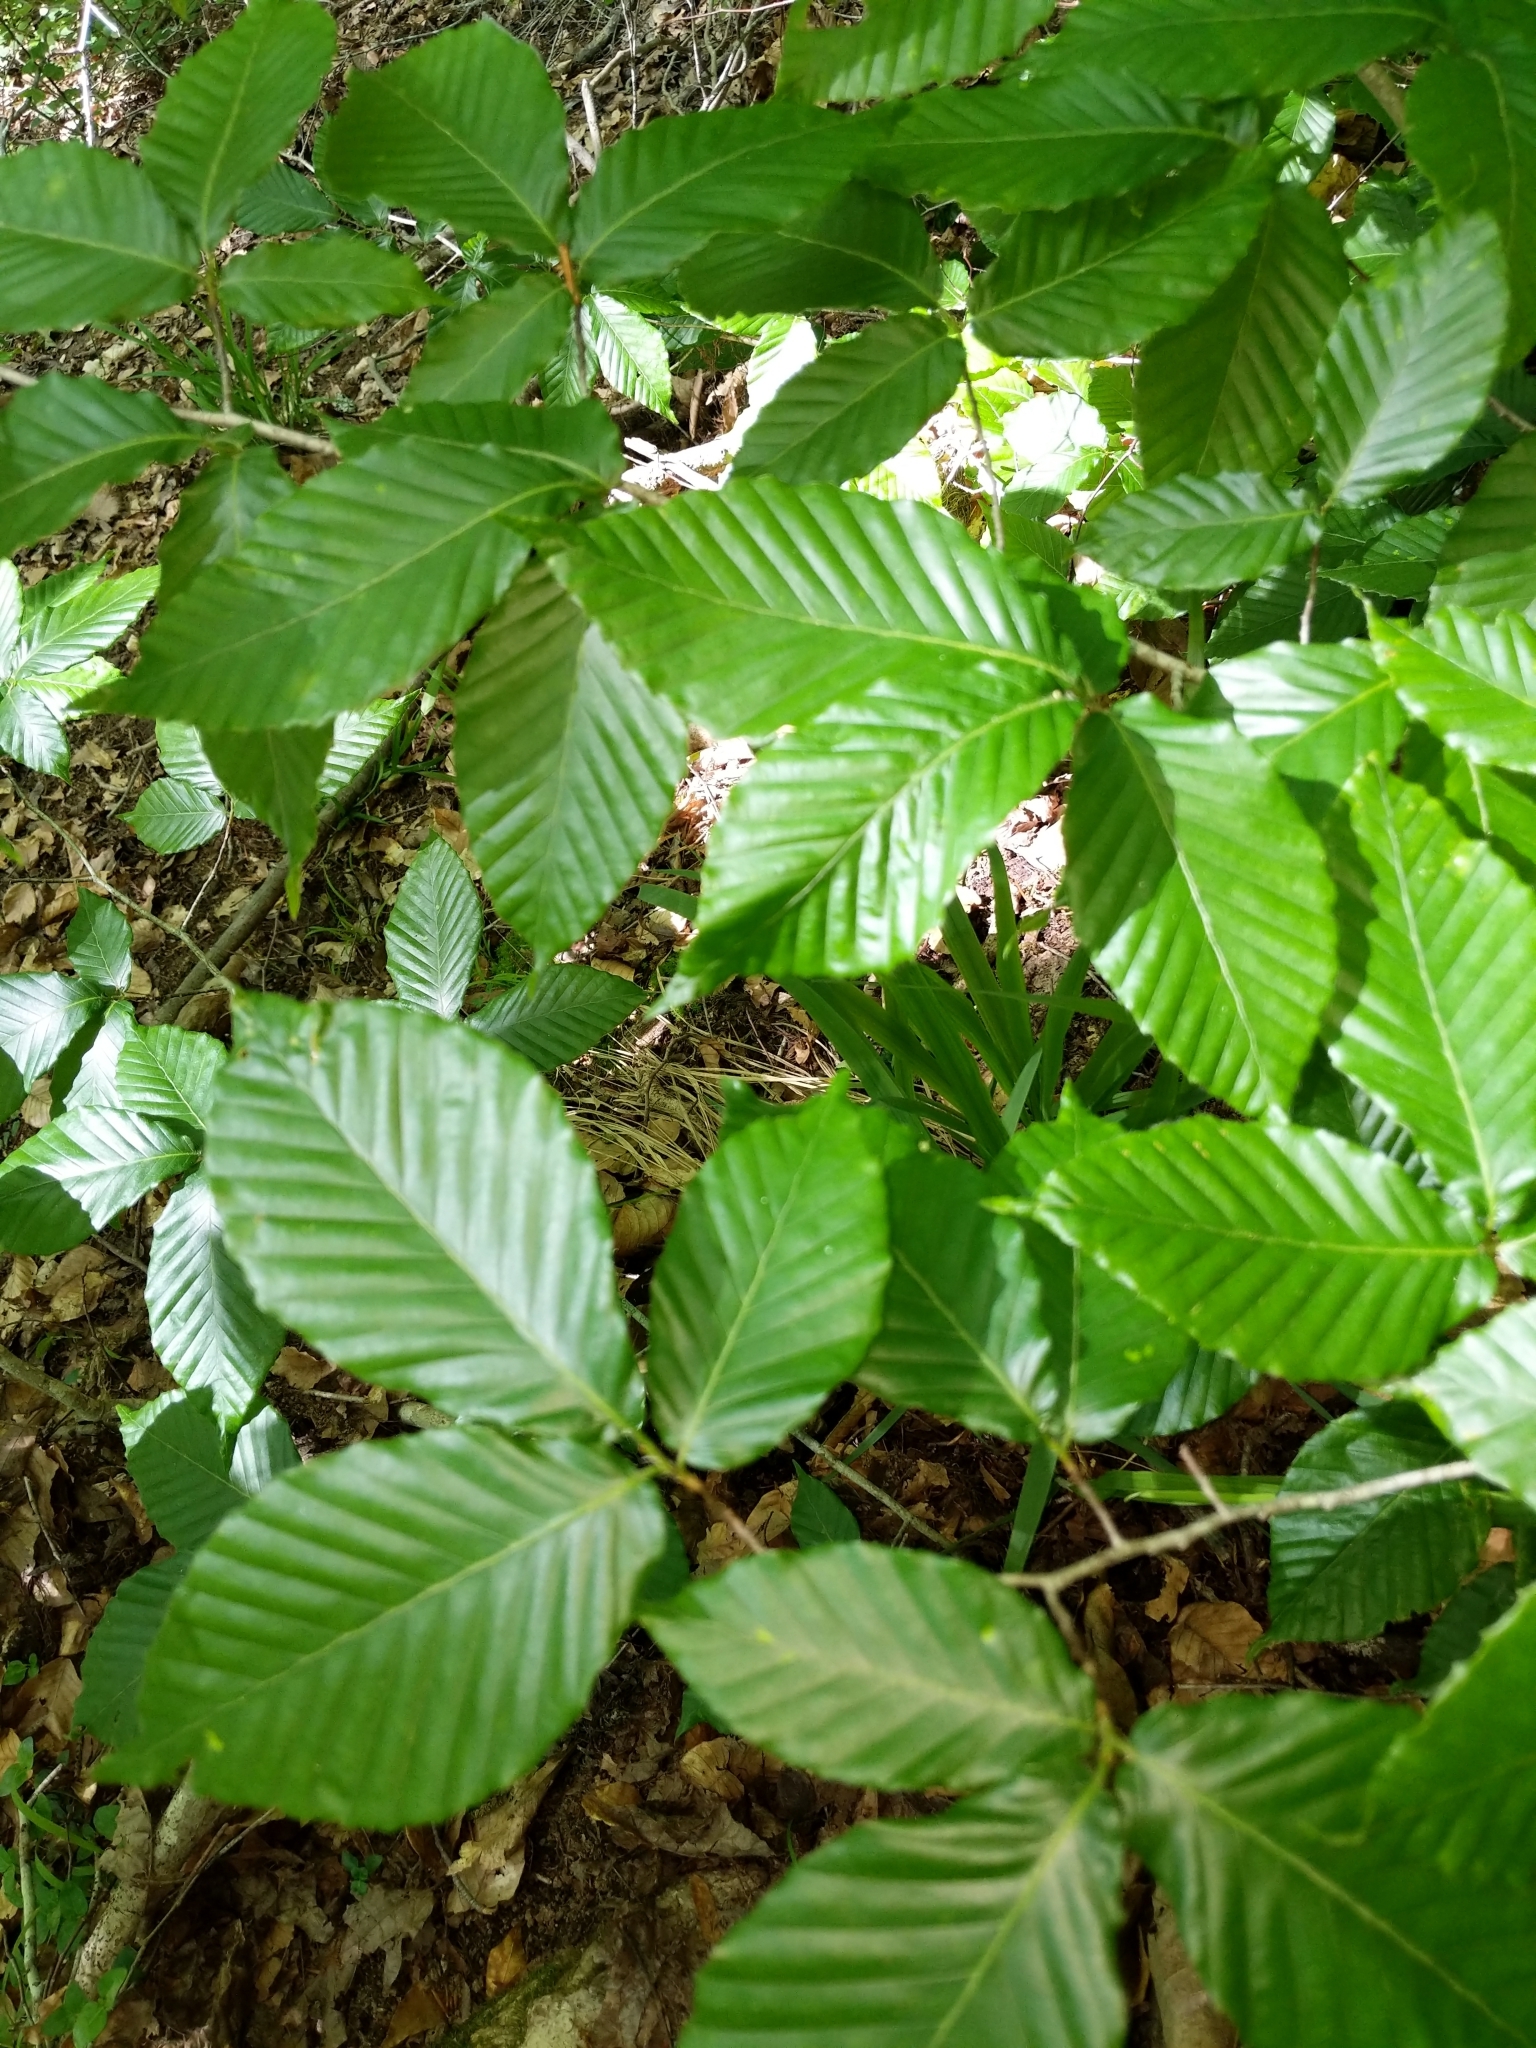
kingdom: Plantae
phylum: Tracheophyta
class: Magnoliopsida
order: Fagales
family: Fagaceae
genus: Fagus
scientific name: Fagus grandifolia
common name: American beech
